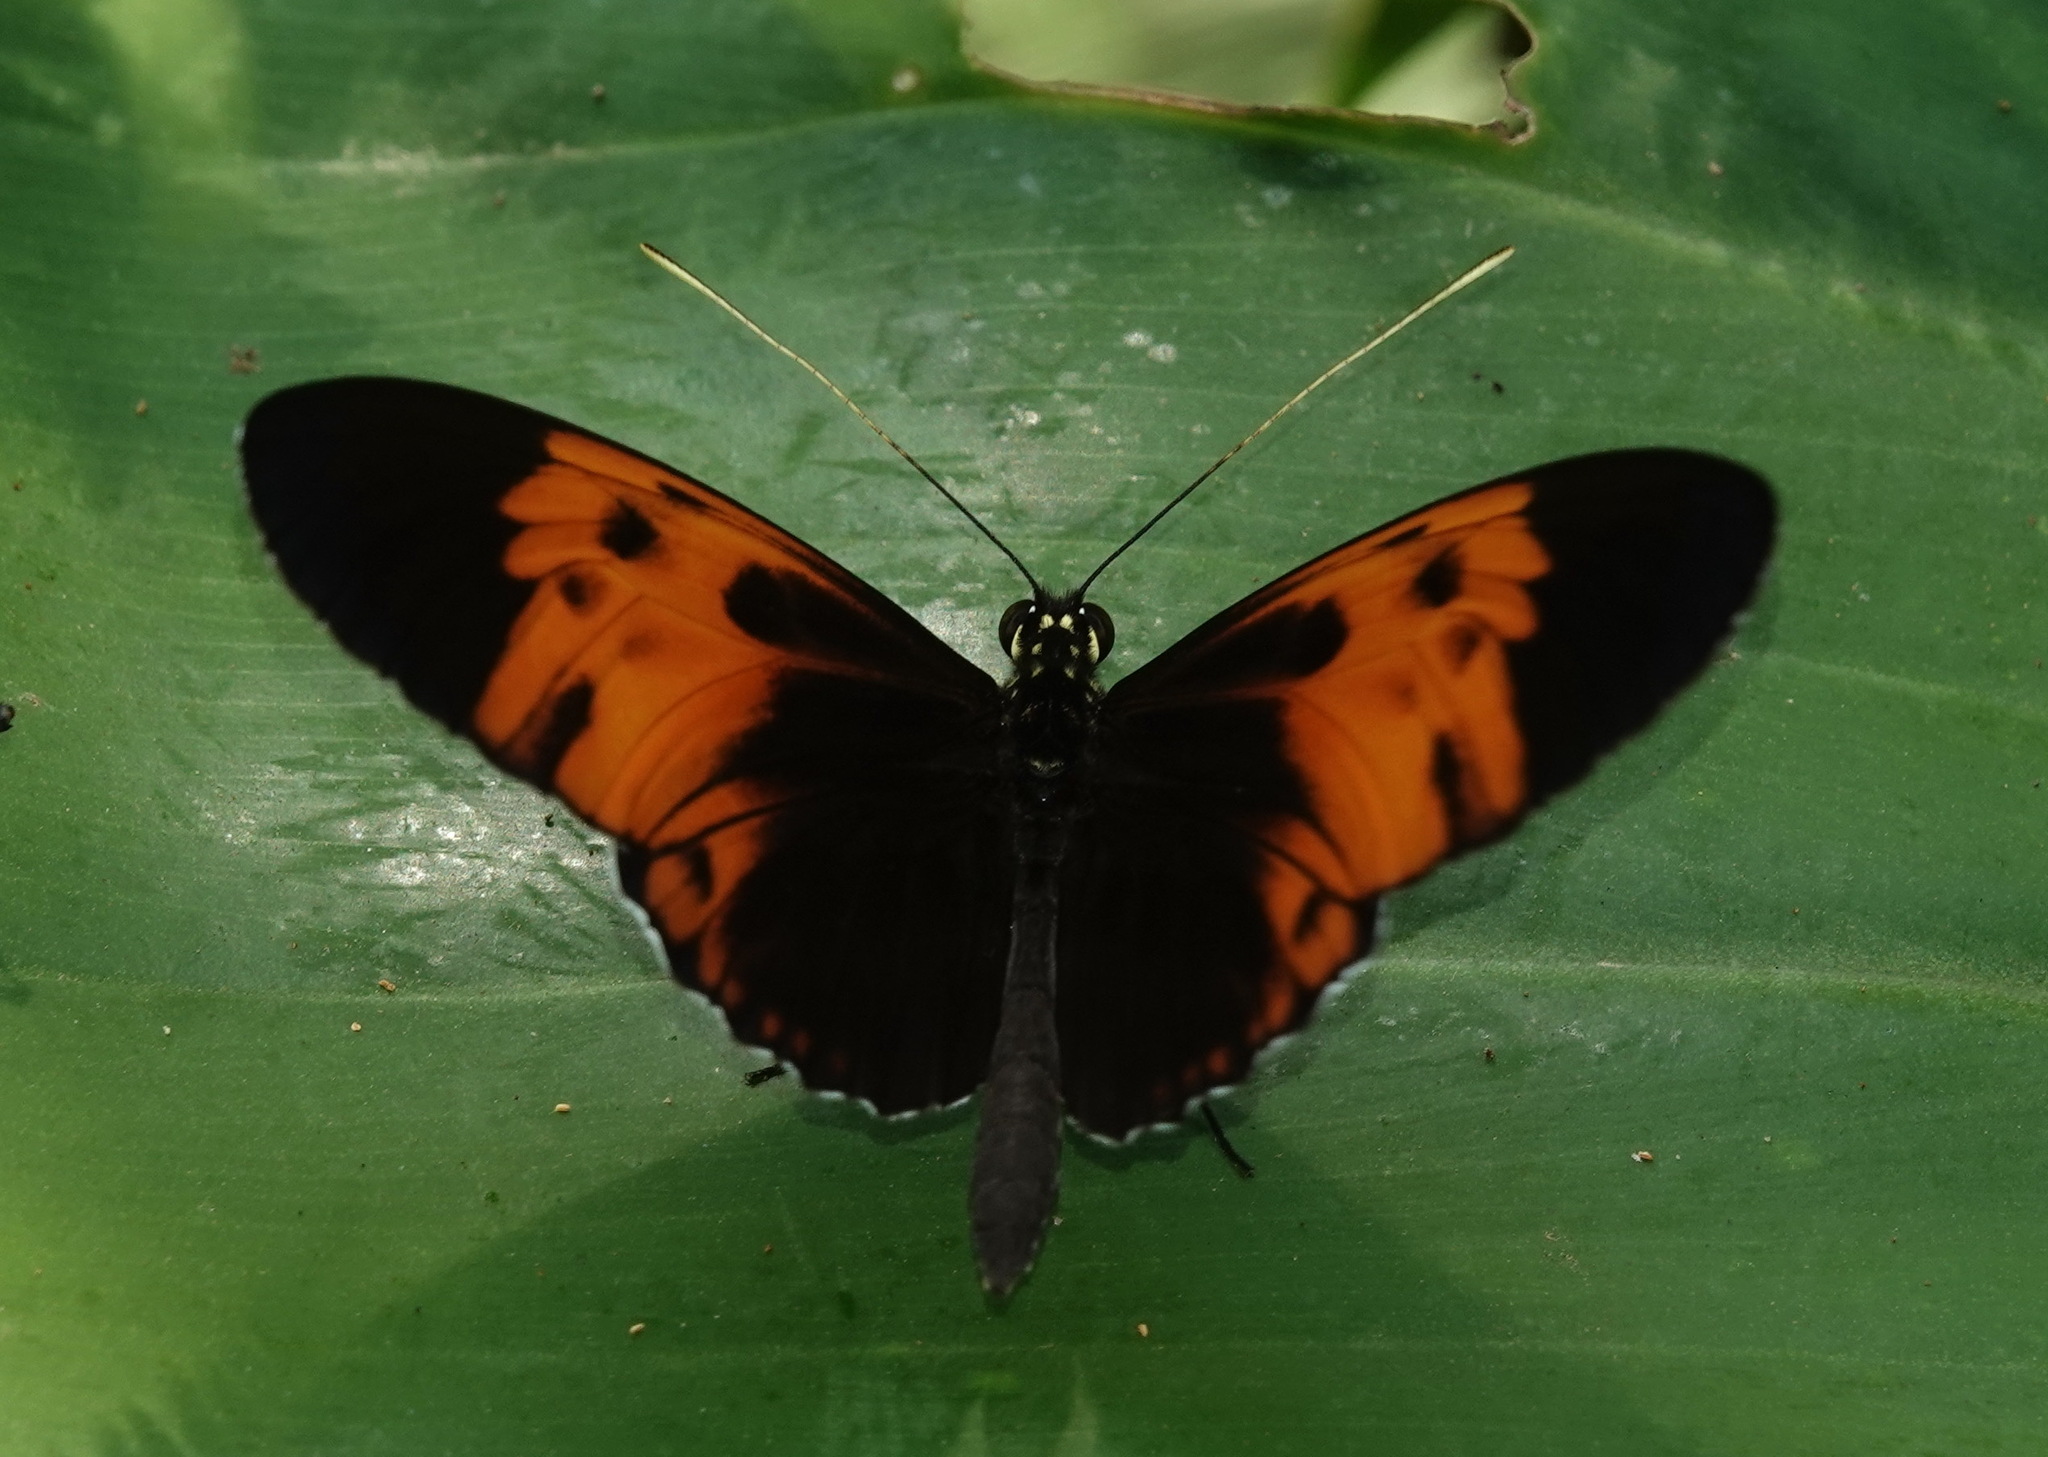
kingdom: Animalia
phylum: Arthropoda
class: Insecta
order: Lepidoptera
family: Nymphalidae
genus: Heliconius
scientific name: Heliconius numatus
